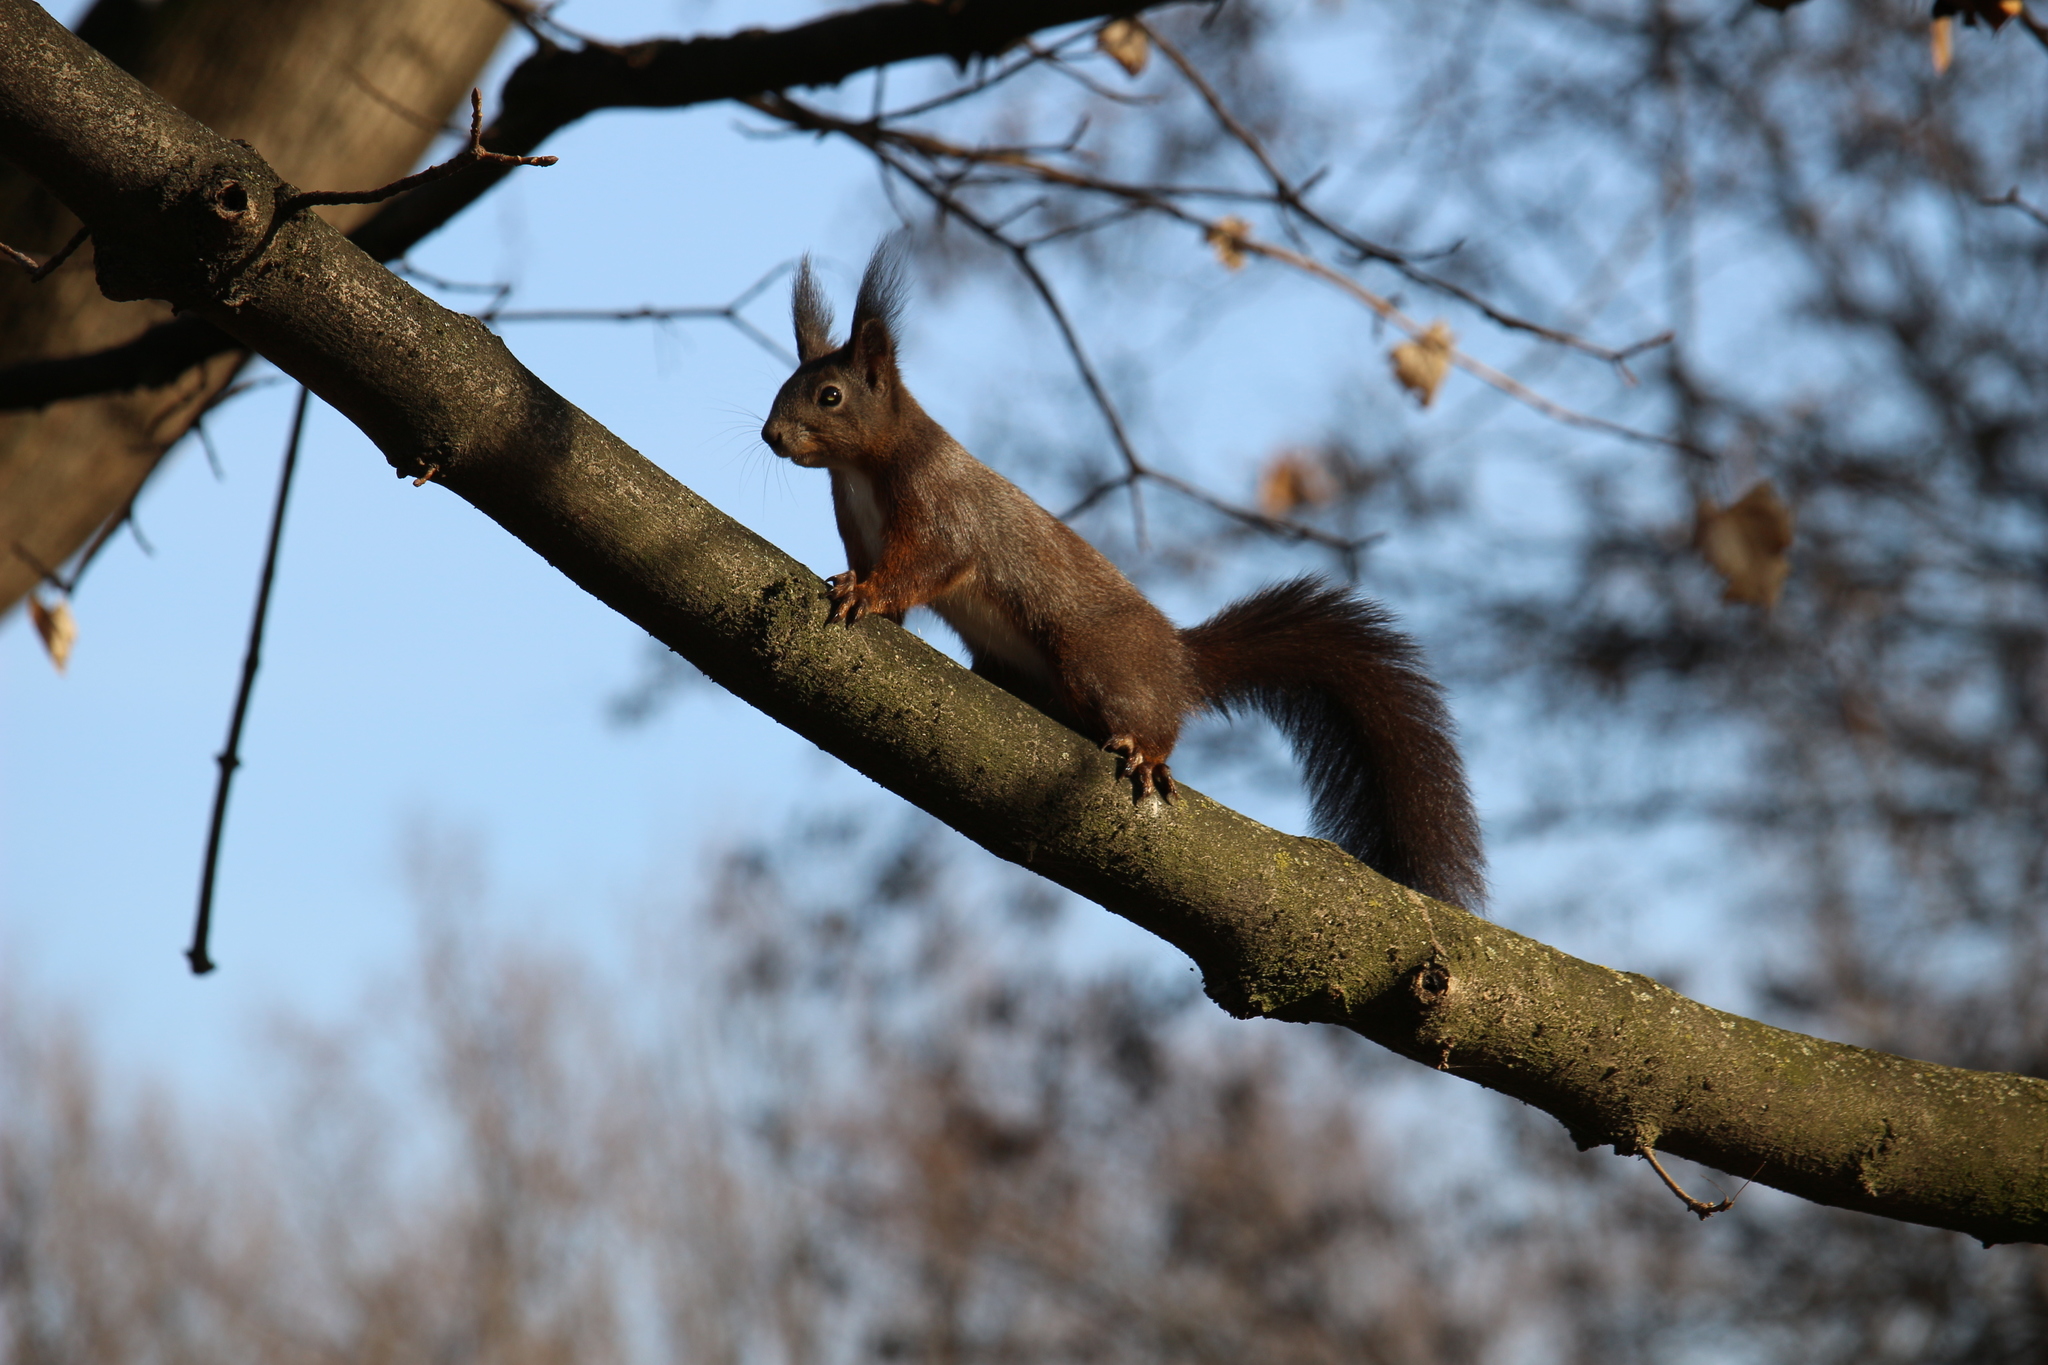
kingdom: Animalia
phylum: Chordata
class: Mammalia
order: Rodentia
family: Sciuridae
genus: Sciurus
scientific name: Sciurus vulgaris
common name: Eurasian red squirrel
